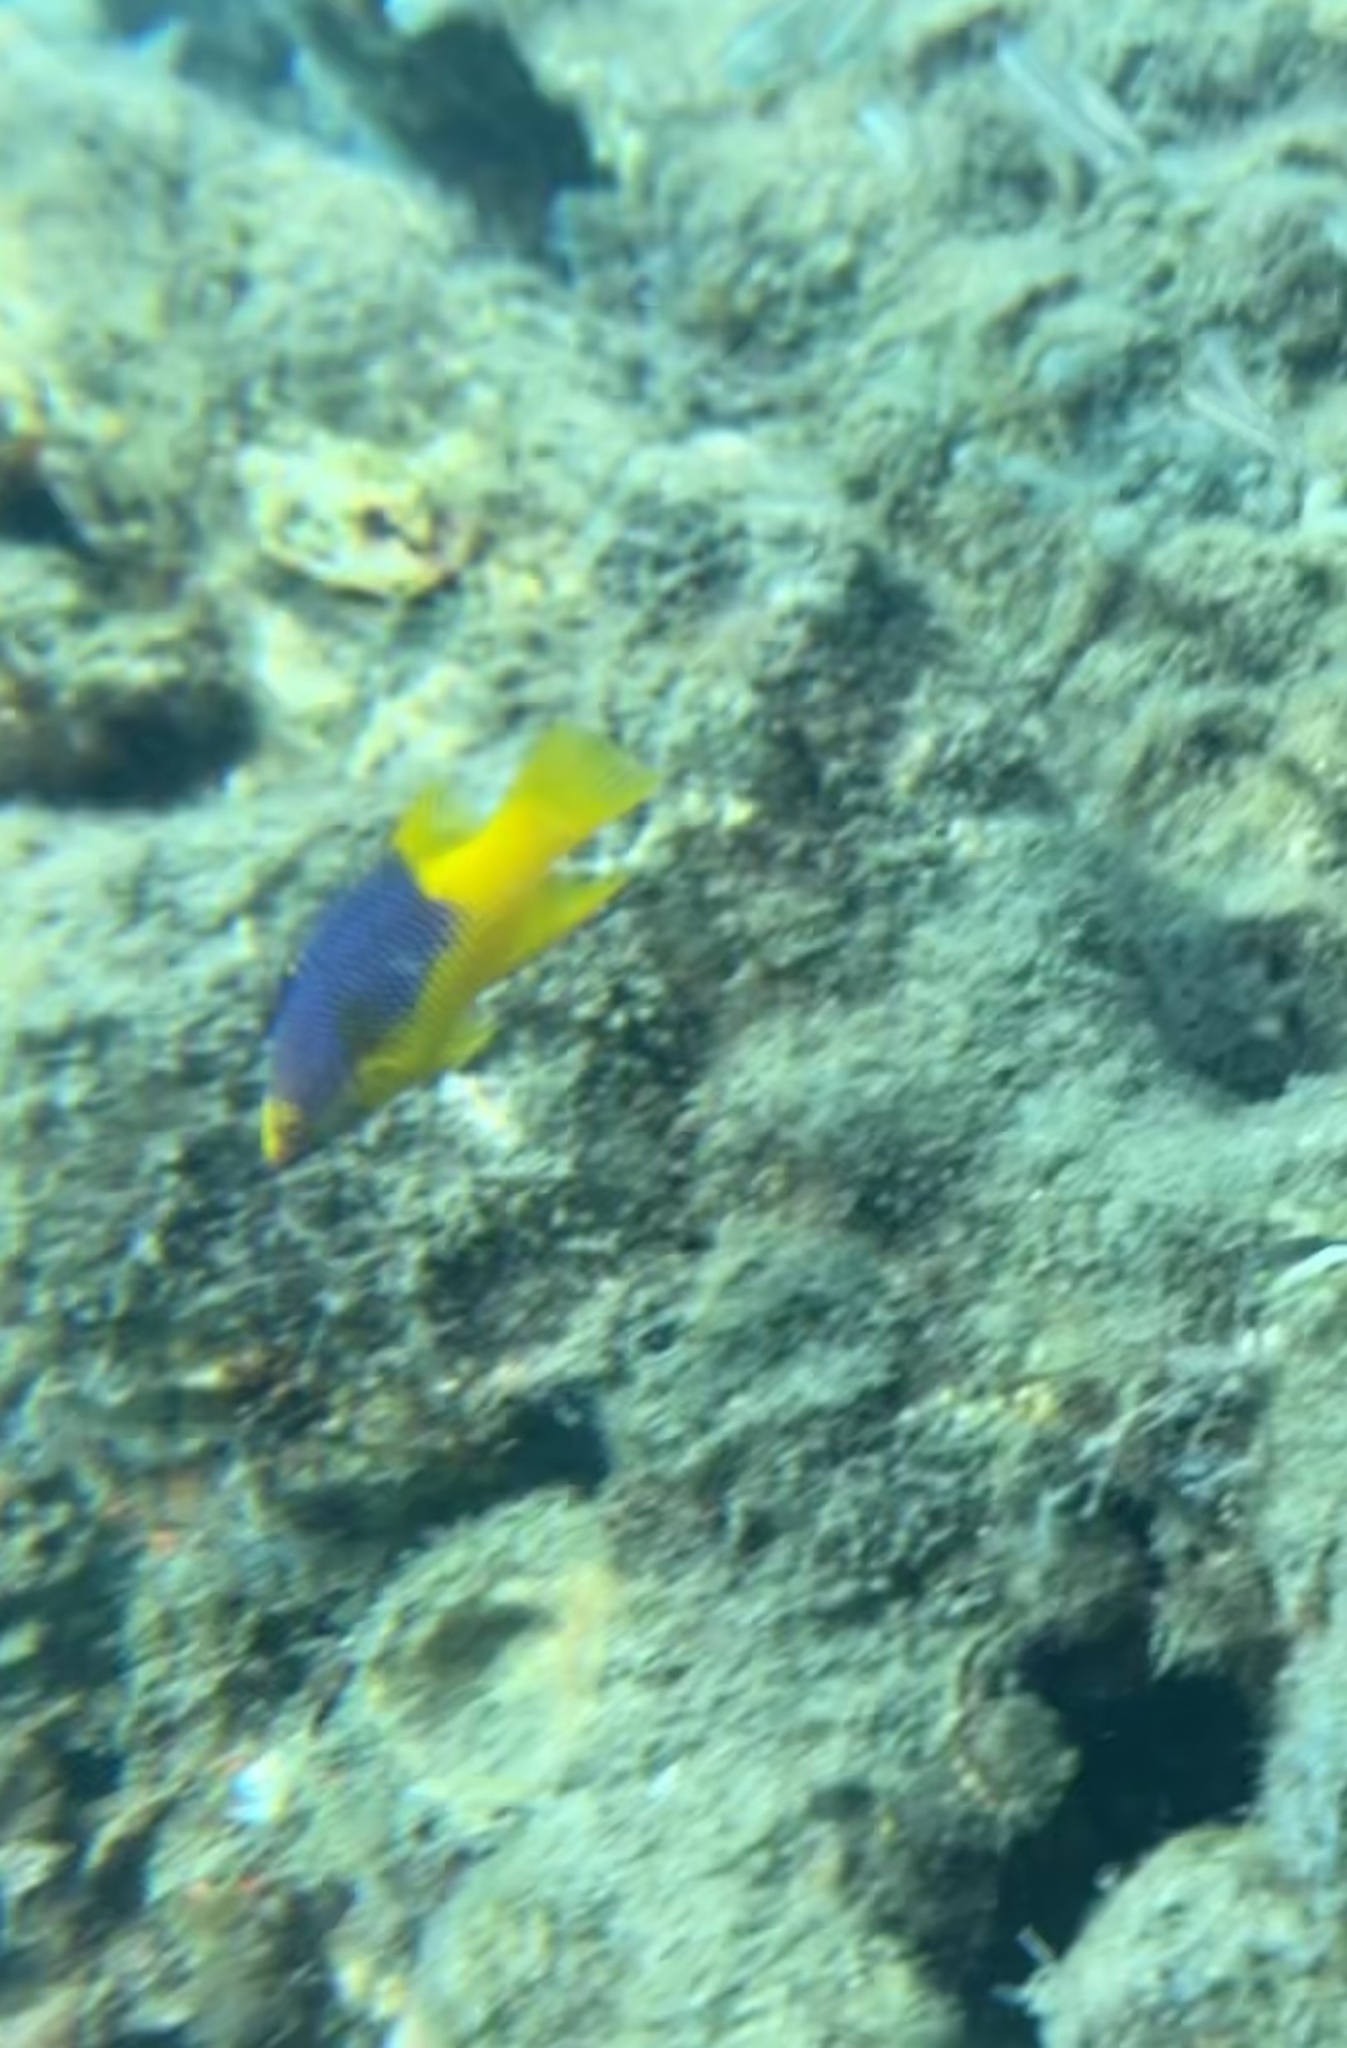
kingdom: Animalia
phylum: Chordata
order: Perciformes
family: Labridae
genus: Bodianus
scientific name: Bodianus rufus
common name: Spanish hogfish
